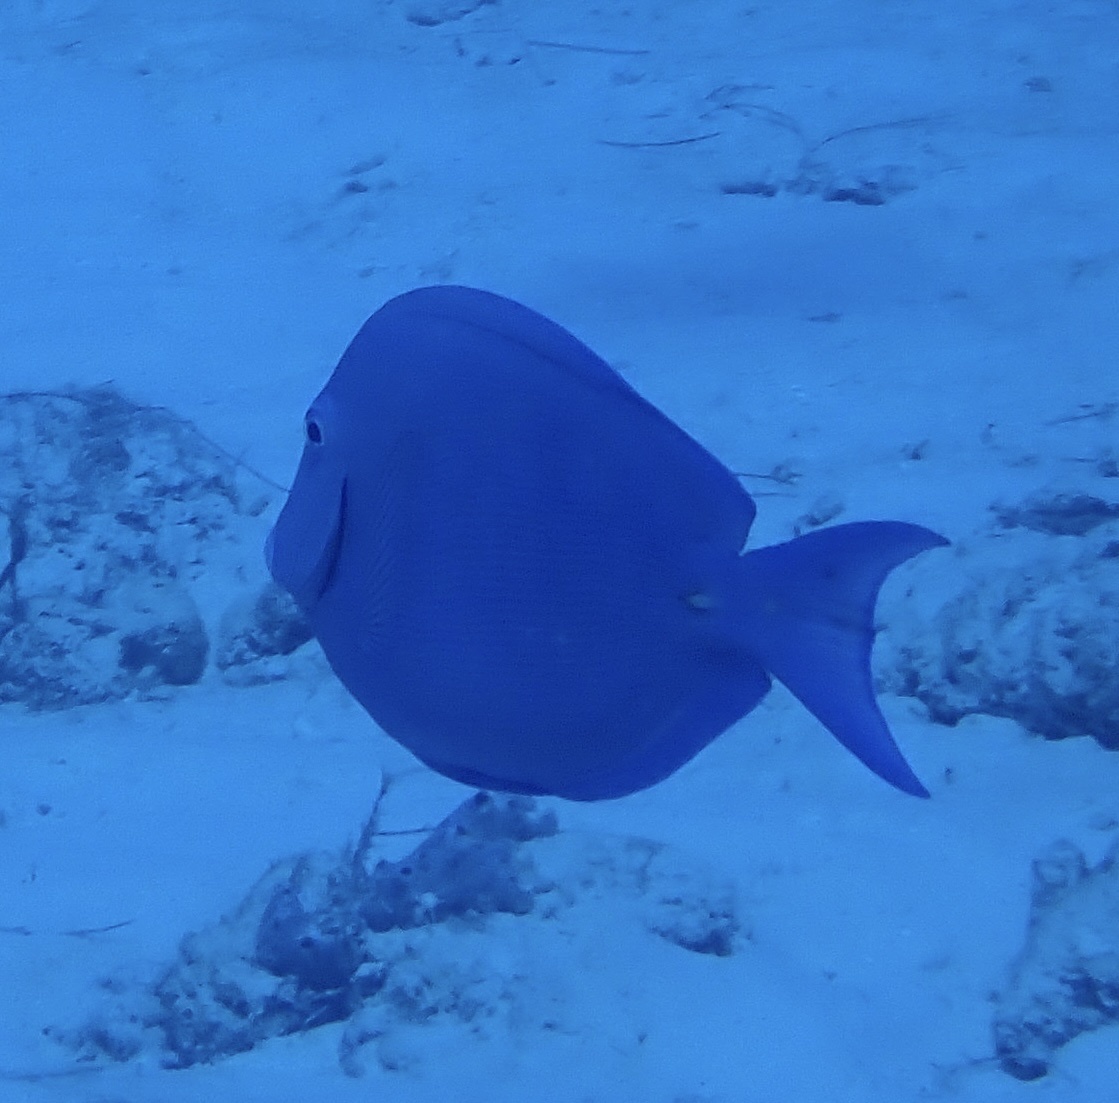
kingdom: Animalia
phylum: Chordata
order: Perciformes
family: Acanthuridae
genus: Acanthurus
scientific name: Acanthurus coeruleus
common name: Blue tang
